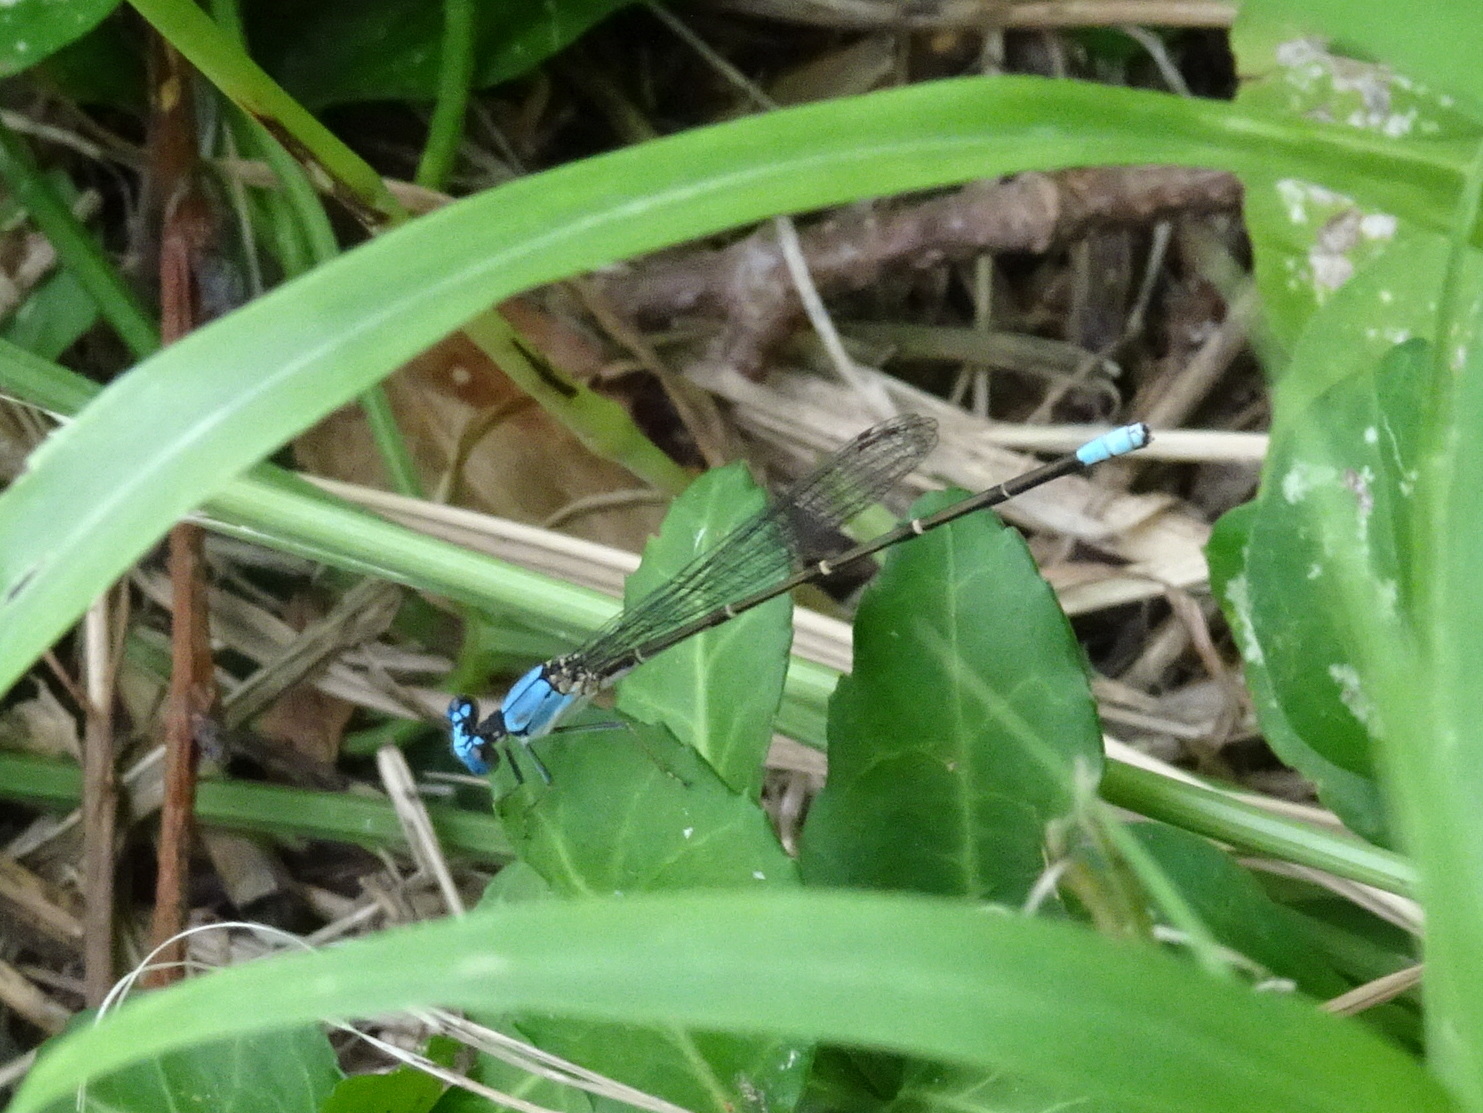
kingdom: Animalia
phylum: Arthropoda
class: Insecta
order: Odonata
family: Coenagrionidae
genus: Argia
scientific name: Argia apicalis
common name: Blue-fronted dancer
